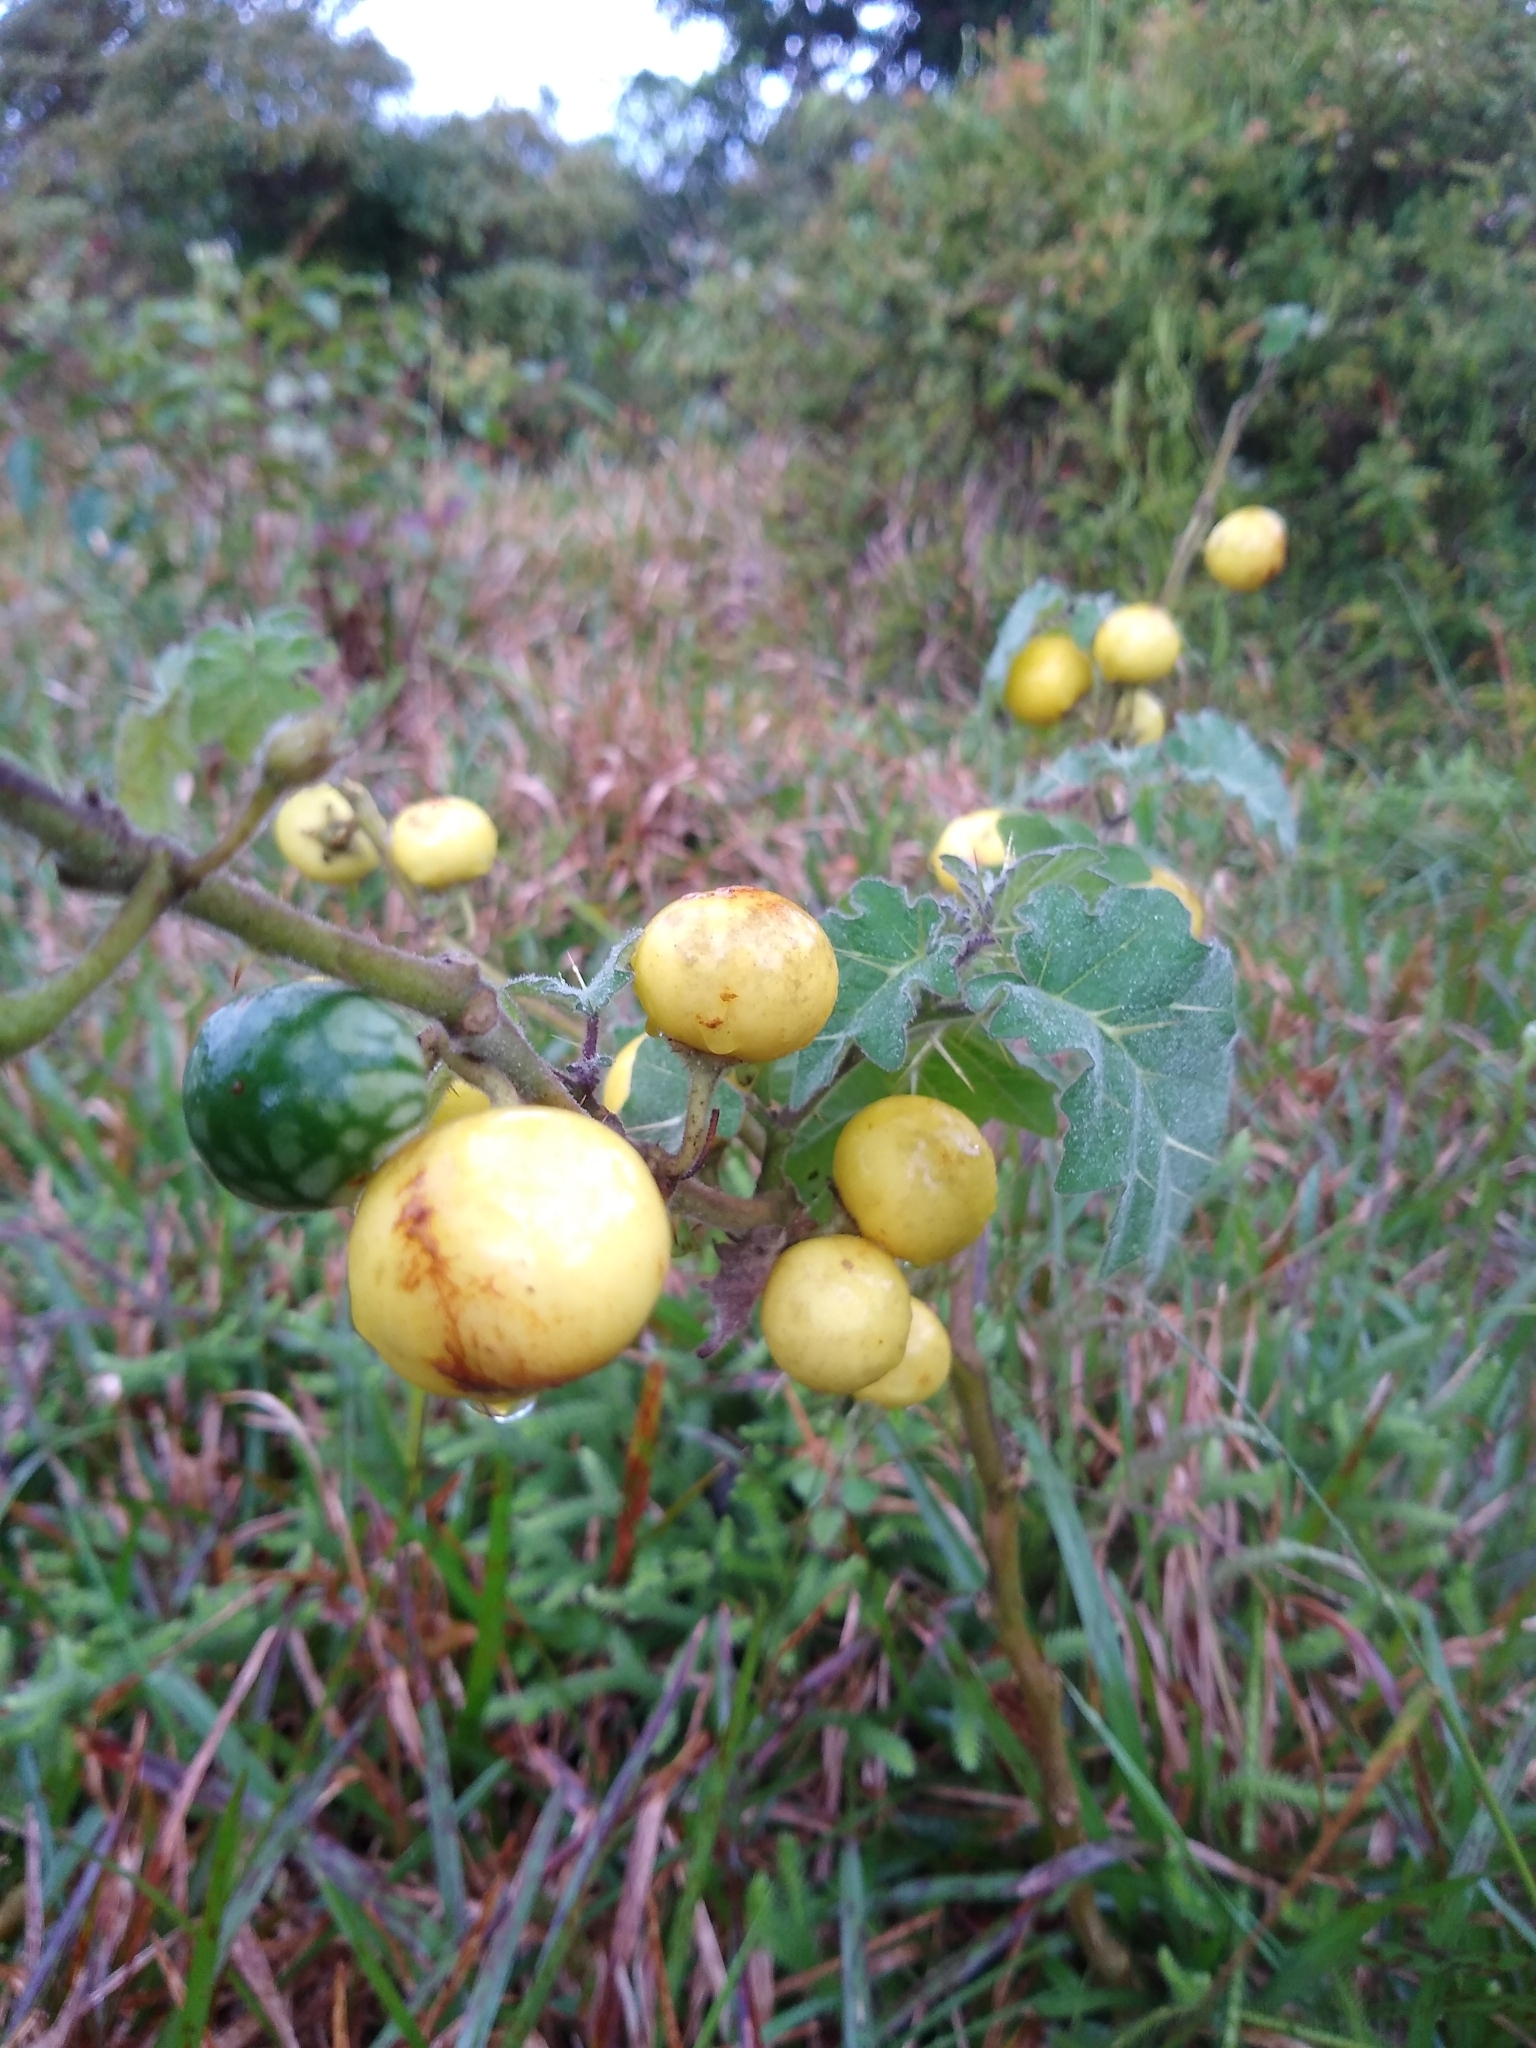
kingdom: Plantae
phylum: Tracheophyta
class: Magnoliopsida
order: Solanales
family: Solanaceae
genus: Solanum
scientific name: Solanum viarum
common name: Tropical soda apple
